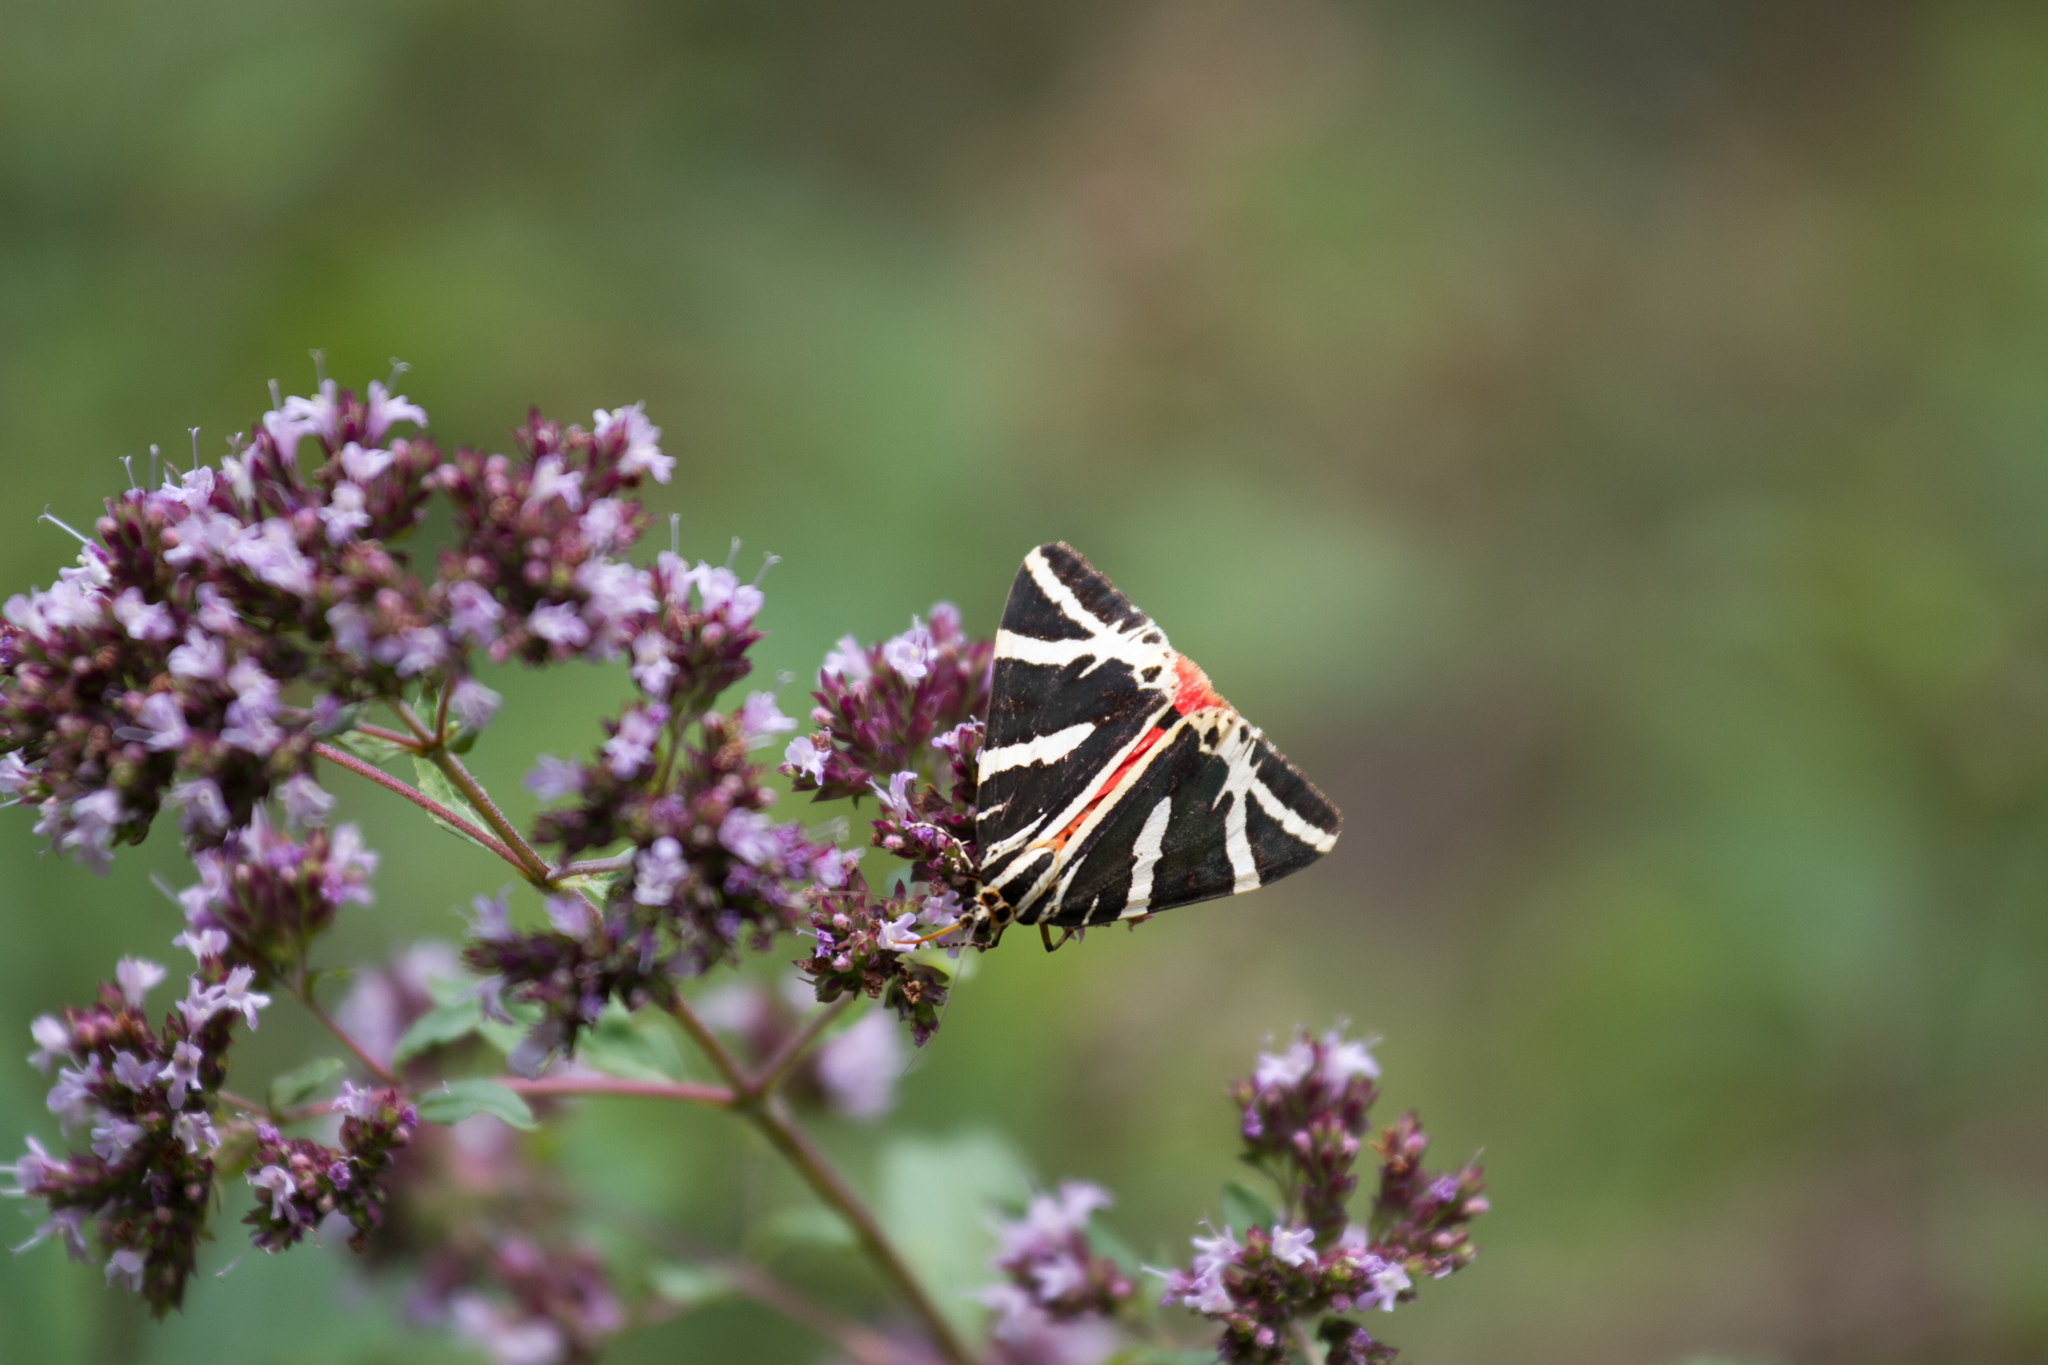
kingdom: Animalia
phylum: Arthropoda
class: Insecta
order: Lepidoptera
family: Erebidae
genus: Euplagia
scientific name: Euplagia quadripunctaria
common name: Jersey tiger
